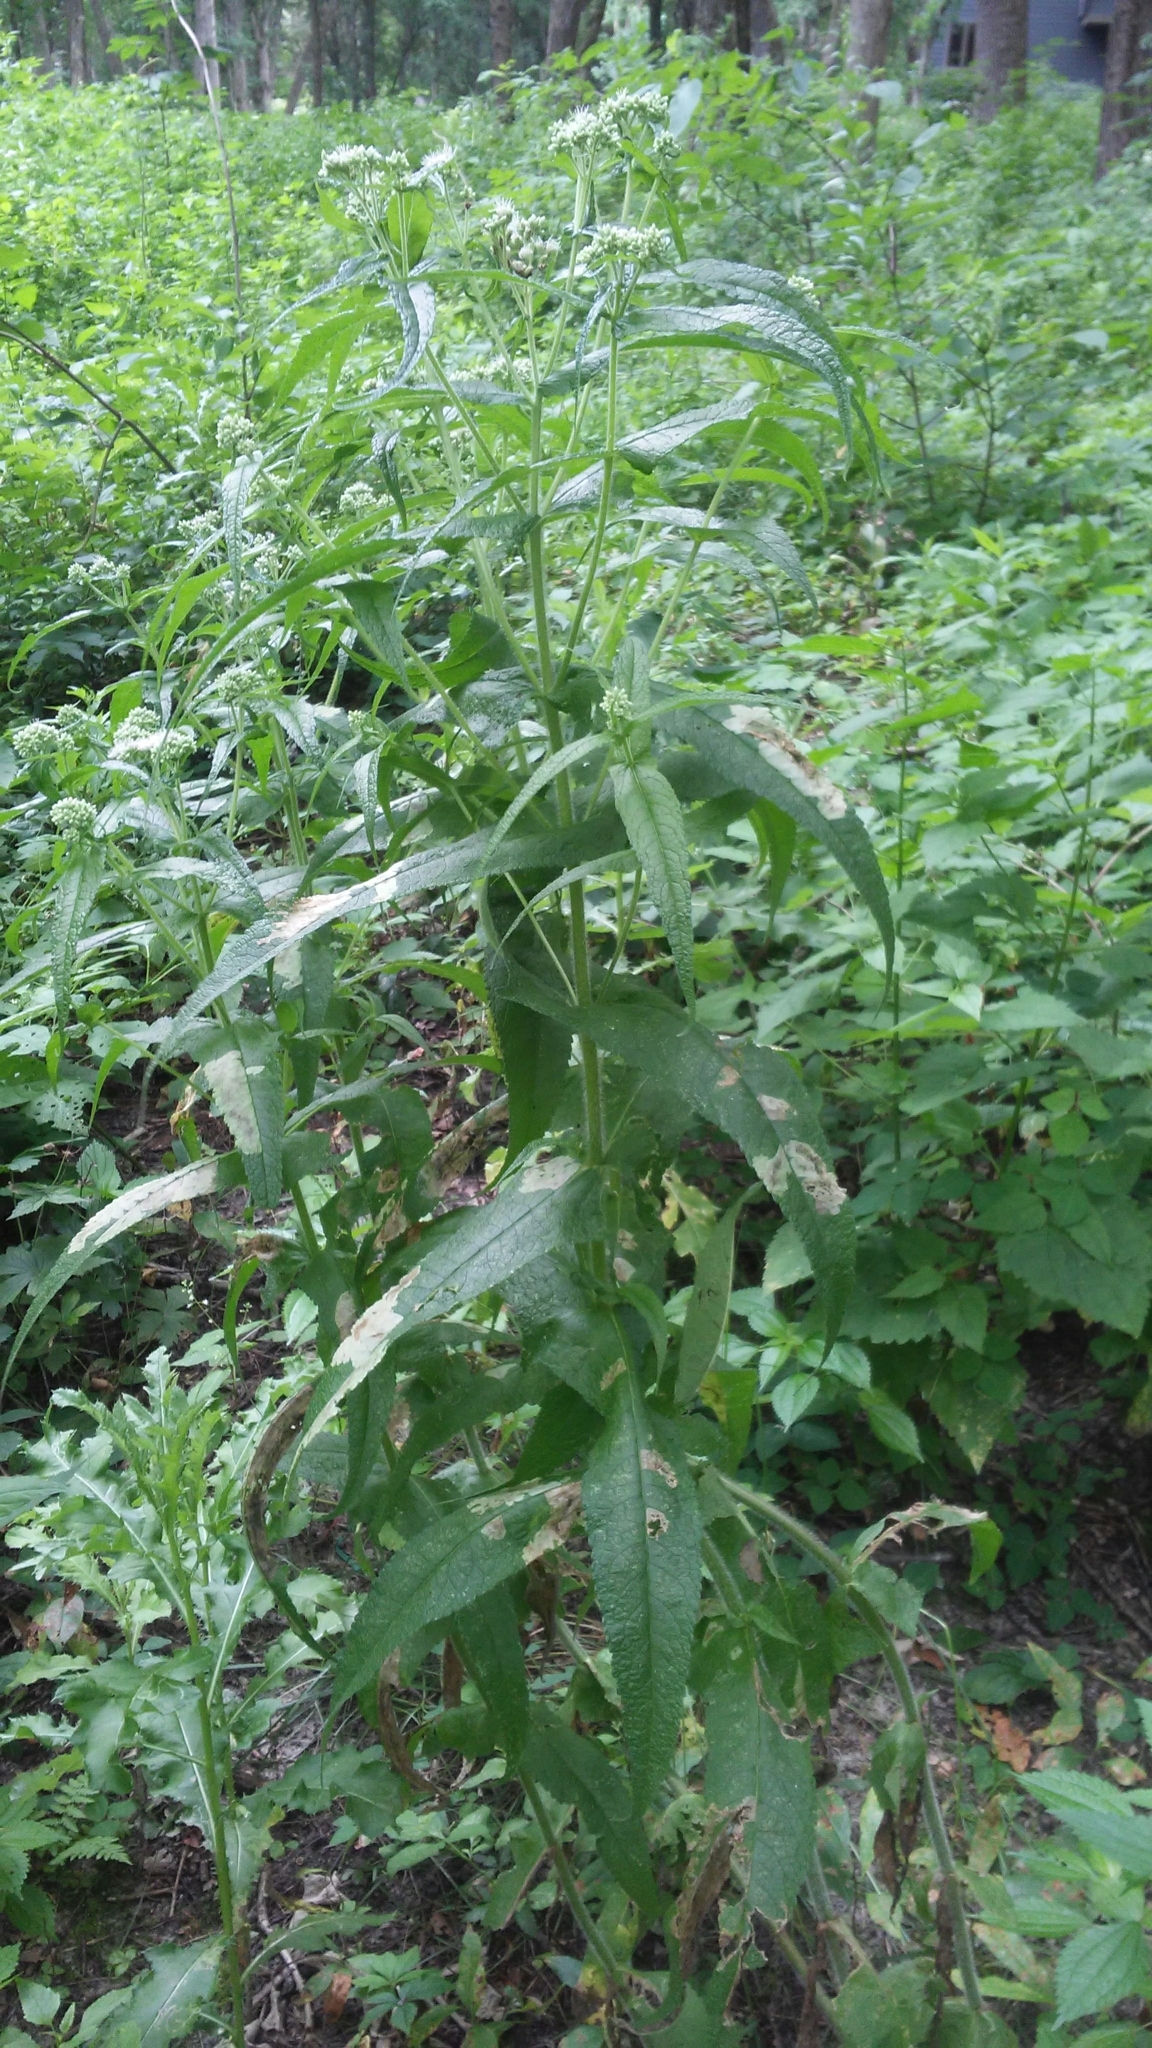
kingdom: Plantae
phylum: Tracheophyta
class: Magnoliopsida
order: Asterales
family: Asteraceae
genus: Eupatorium
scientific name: Eupatorium perfoliatum
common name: Boneset
